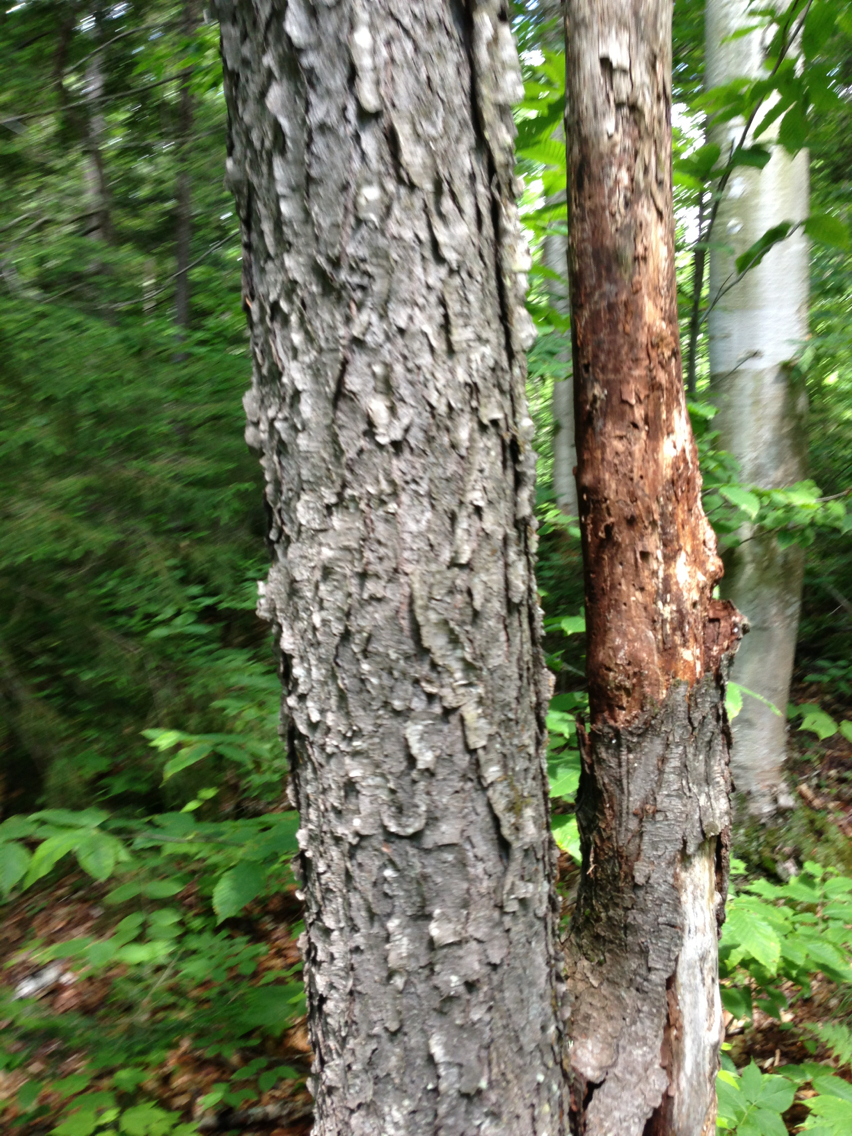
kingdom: Plantae
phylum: Tracheophyta
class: Magnoliopsida
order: Rosales
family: Rosaceae
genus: Prunus
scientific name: Prunus serotina
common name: Black cherry
